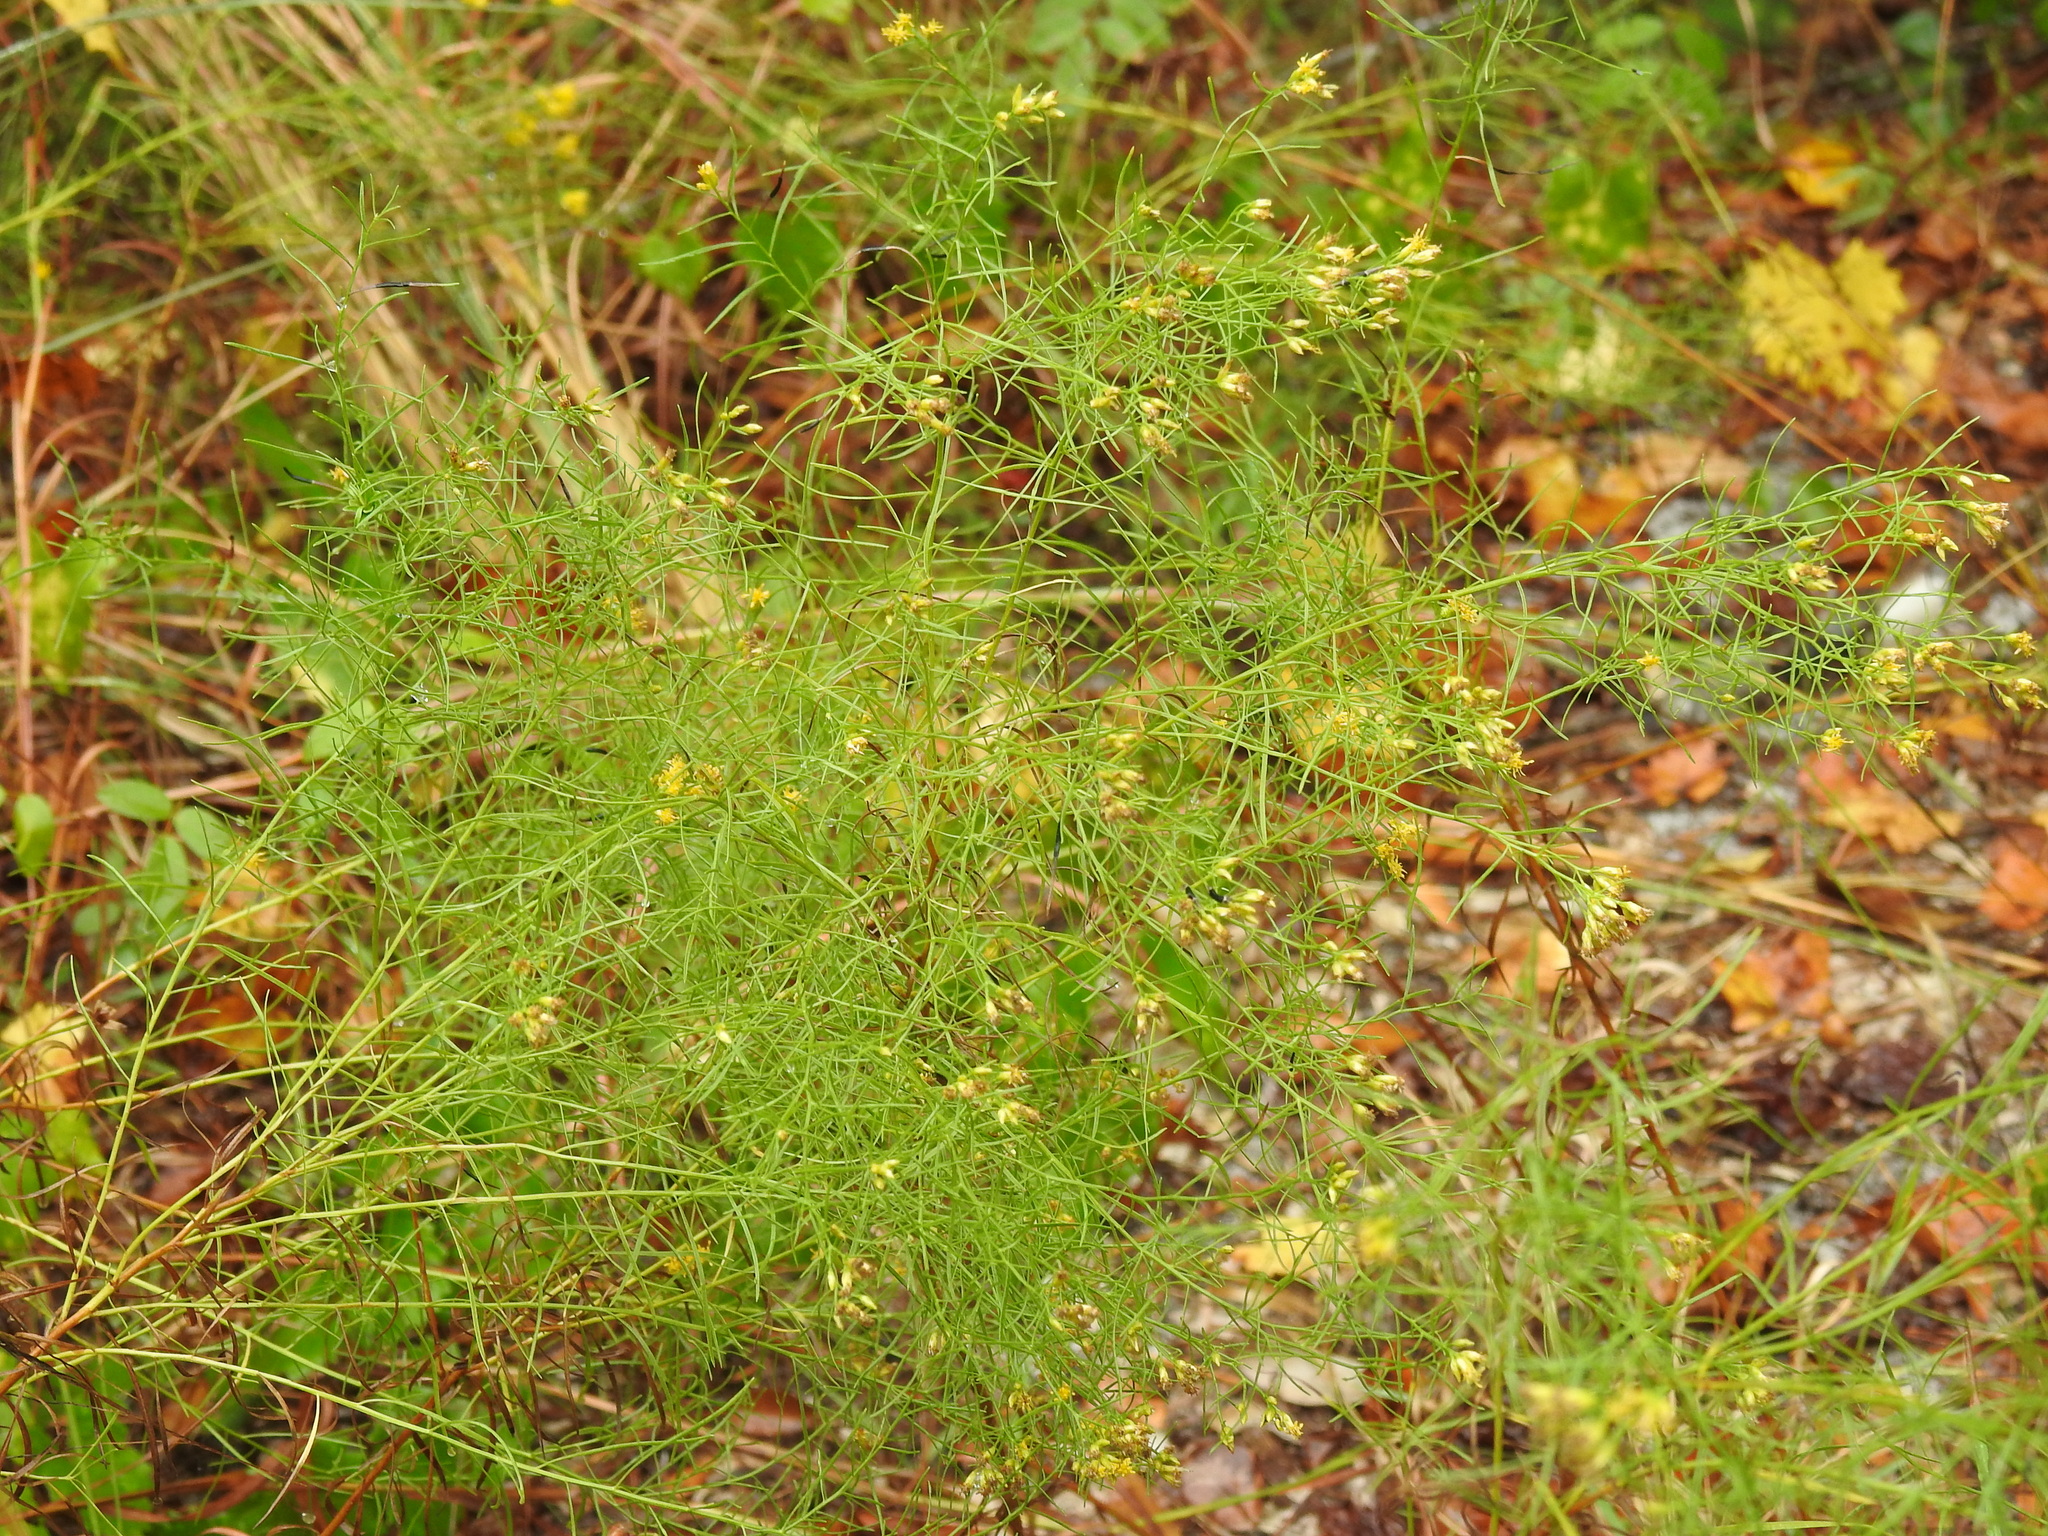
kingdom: Plantae
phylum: Tracheophyta
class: Magnoliopsida
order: Asterales
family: Asteraceae
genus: Euthamia
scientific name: Euthamia caroliniana
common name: Coastal plain goldentop
